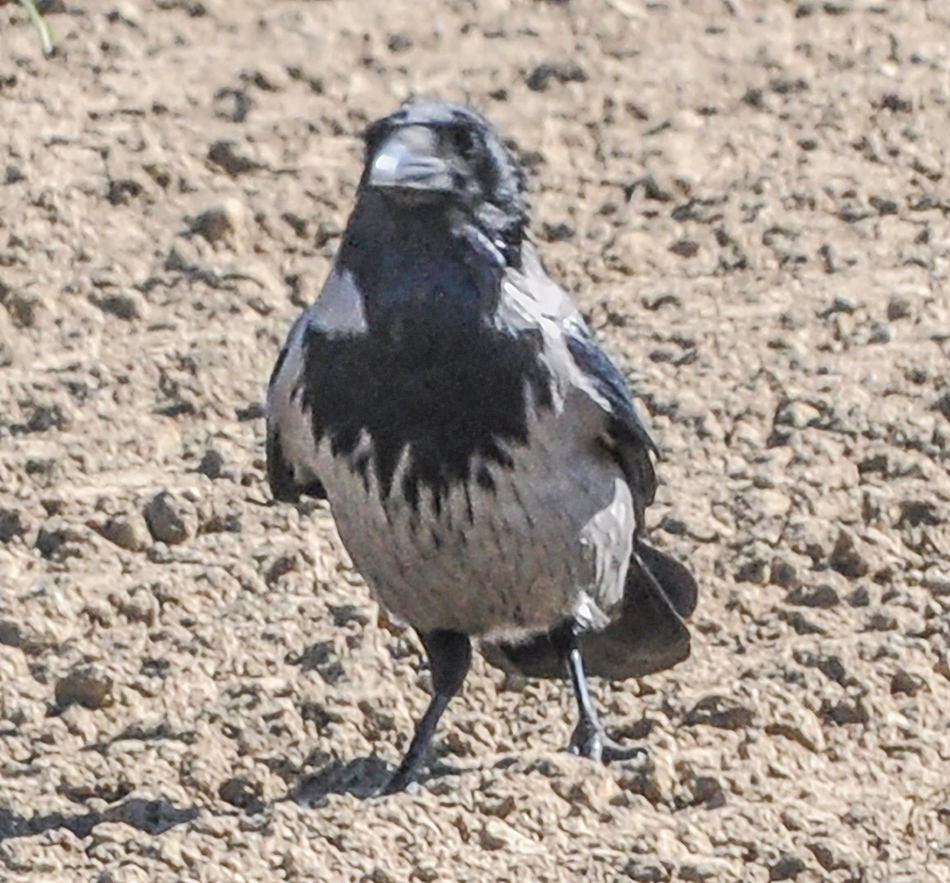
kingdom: Animalia
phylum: Chordata
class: Aves
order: Passeriformes
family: Corvidae
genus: Corvus
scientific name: Corvus cornix
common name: Hooded crow
